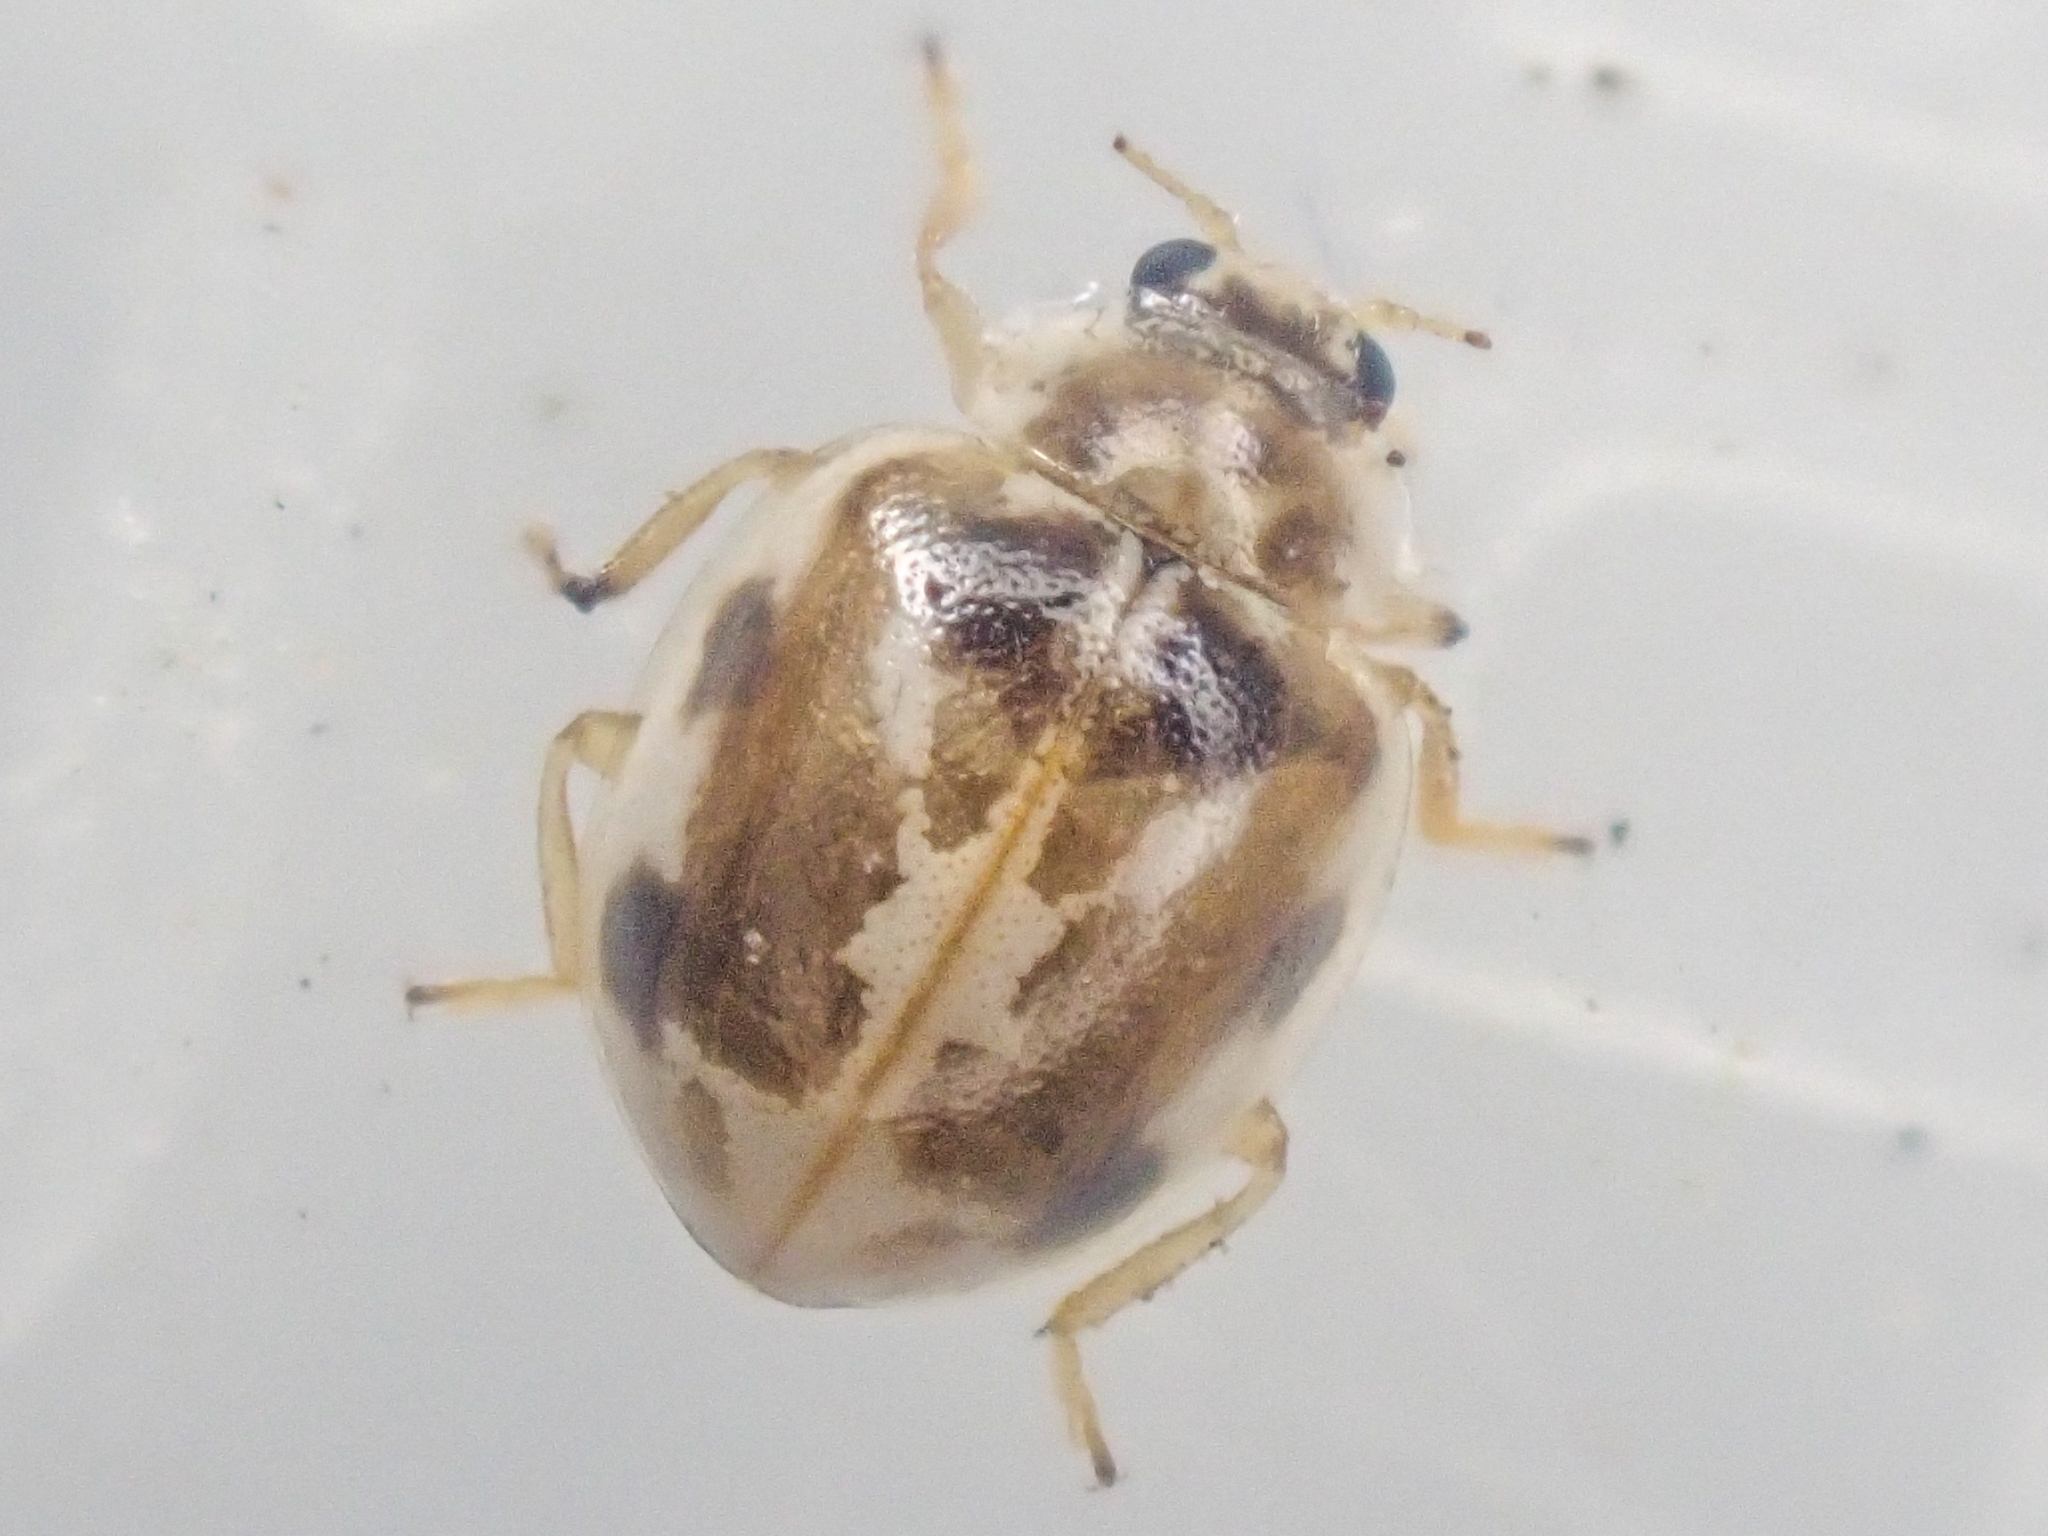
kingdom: Animalia
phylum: Arthropoda
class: Insecta
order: Coleoptera
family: Coccinellidae
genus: Psyllobora
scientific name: Psyllobora vigintimaculata
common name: Ladybird beetle
